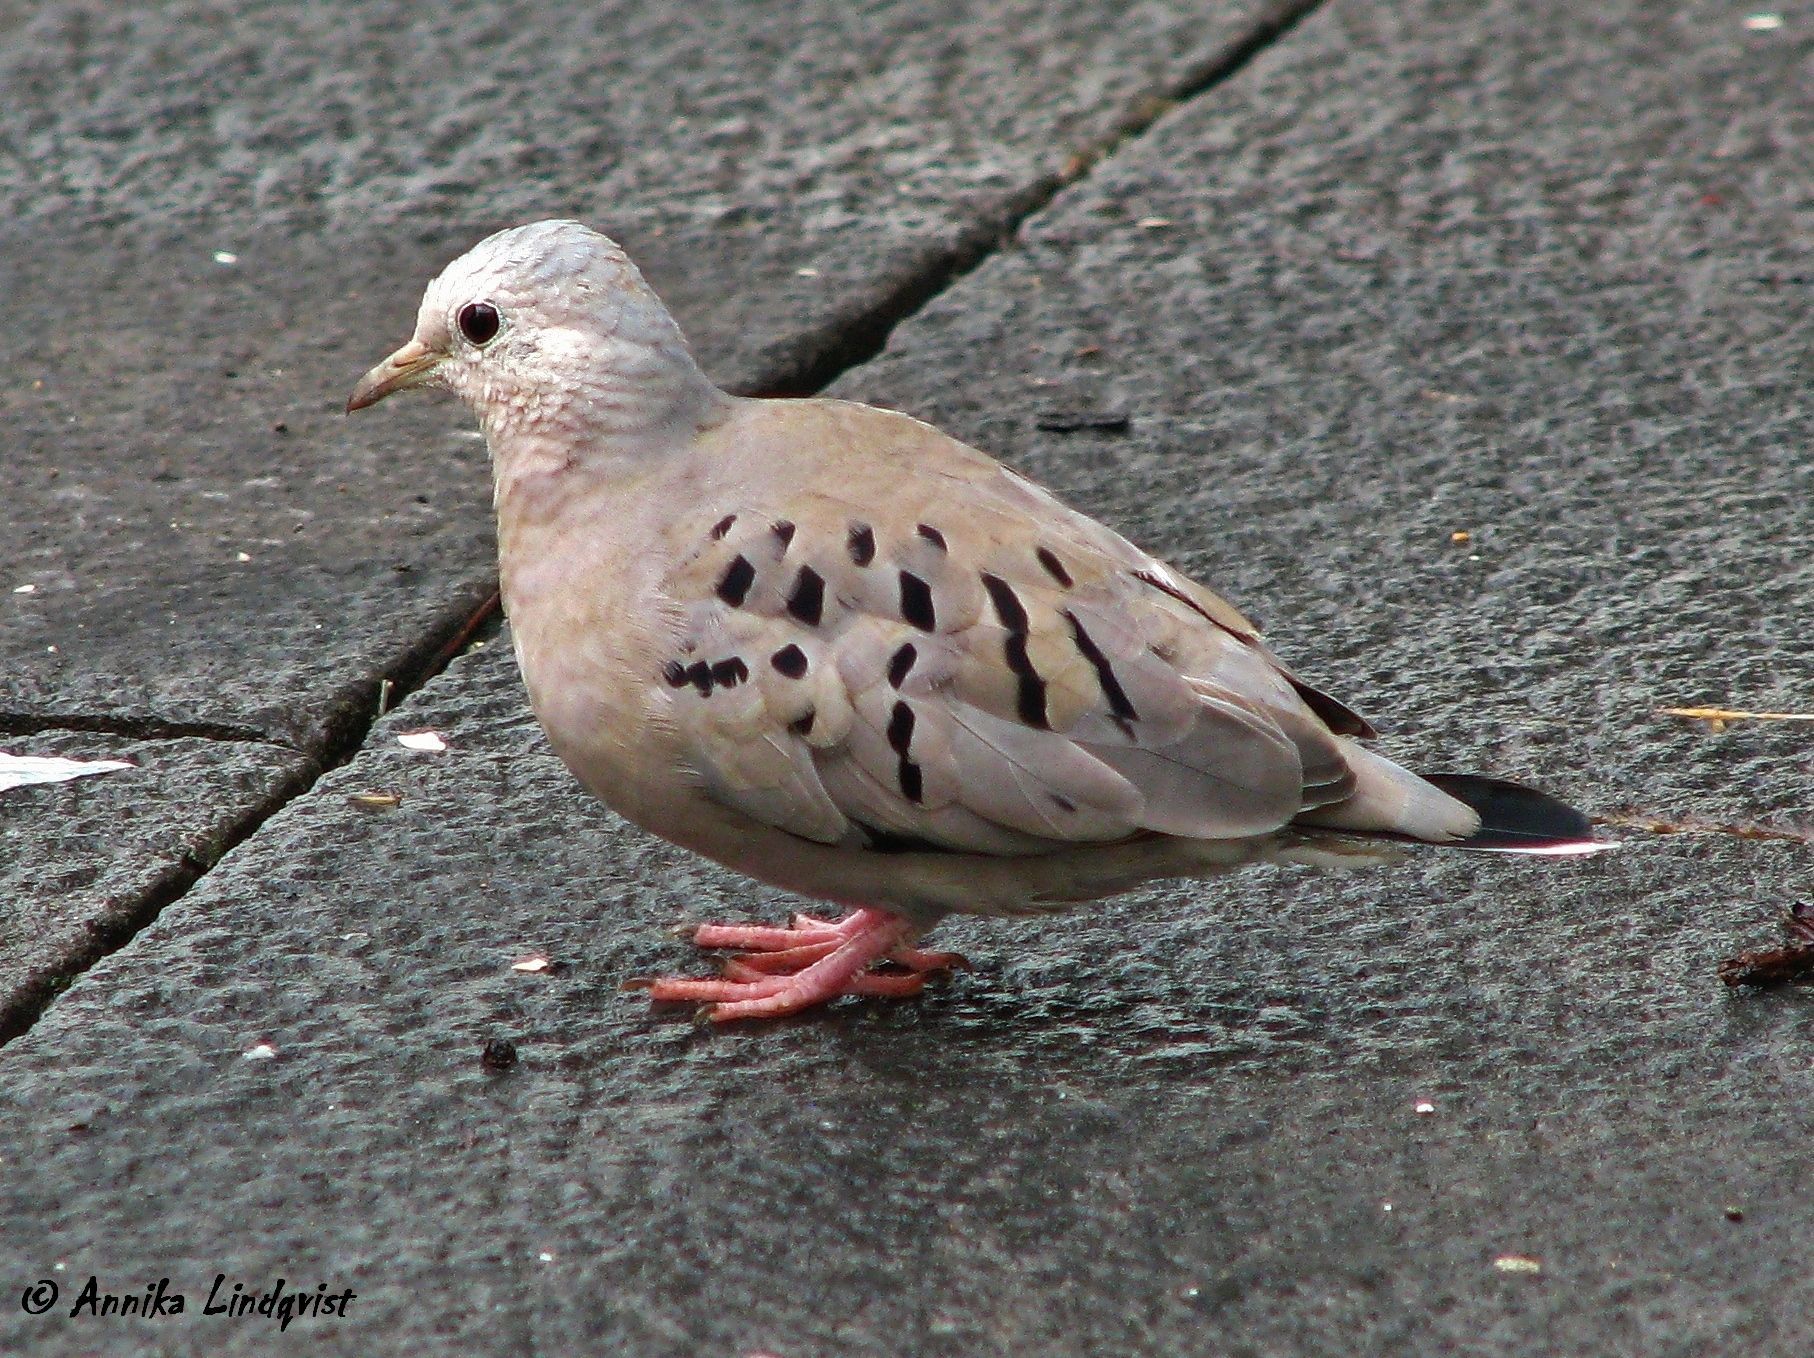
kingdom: Animalia
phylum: Chordata
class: Aves
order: Columbiformes
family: Columbidae
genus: Columbina
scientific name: Columbina buckleyi
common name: Ecuadorian ground dove
